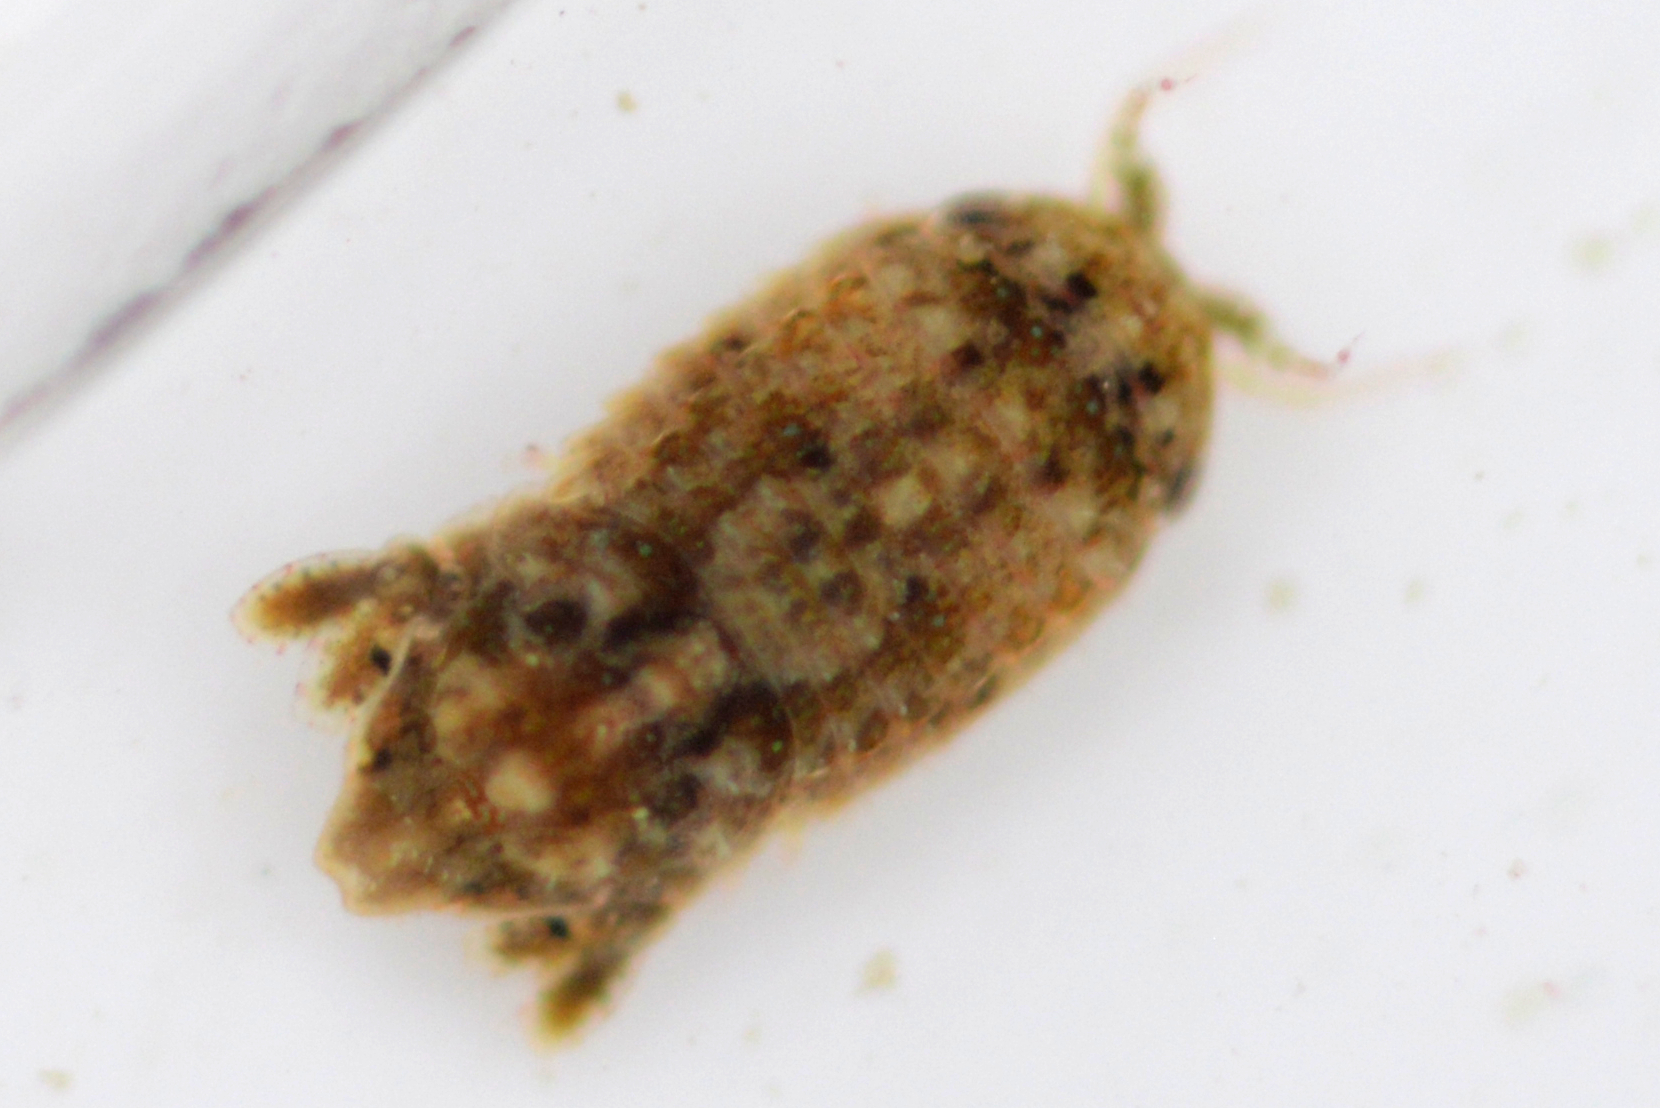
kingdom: Animalia
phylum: Arthropoda
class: Malacostraca
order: Isopoda
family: Sphaeromatidae
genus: Paracerceis
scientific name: Paracerceis sculpta
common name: Marine isopod
